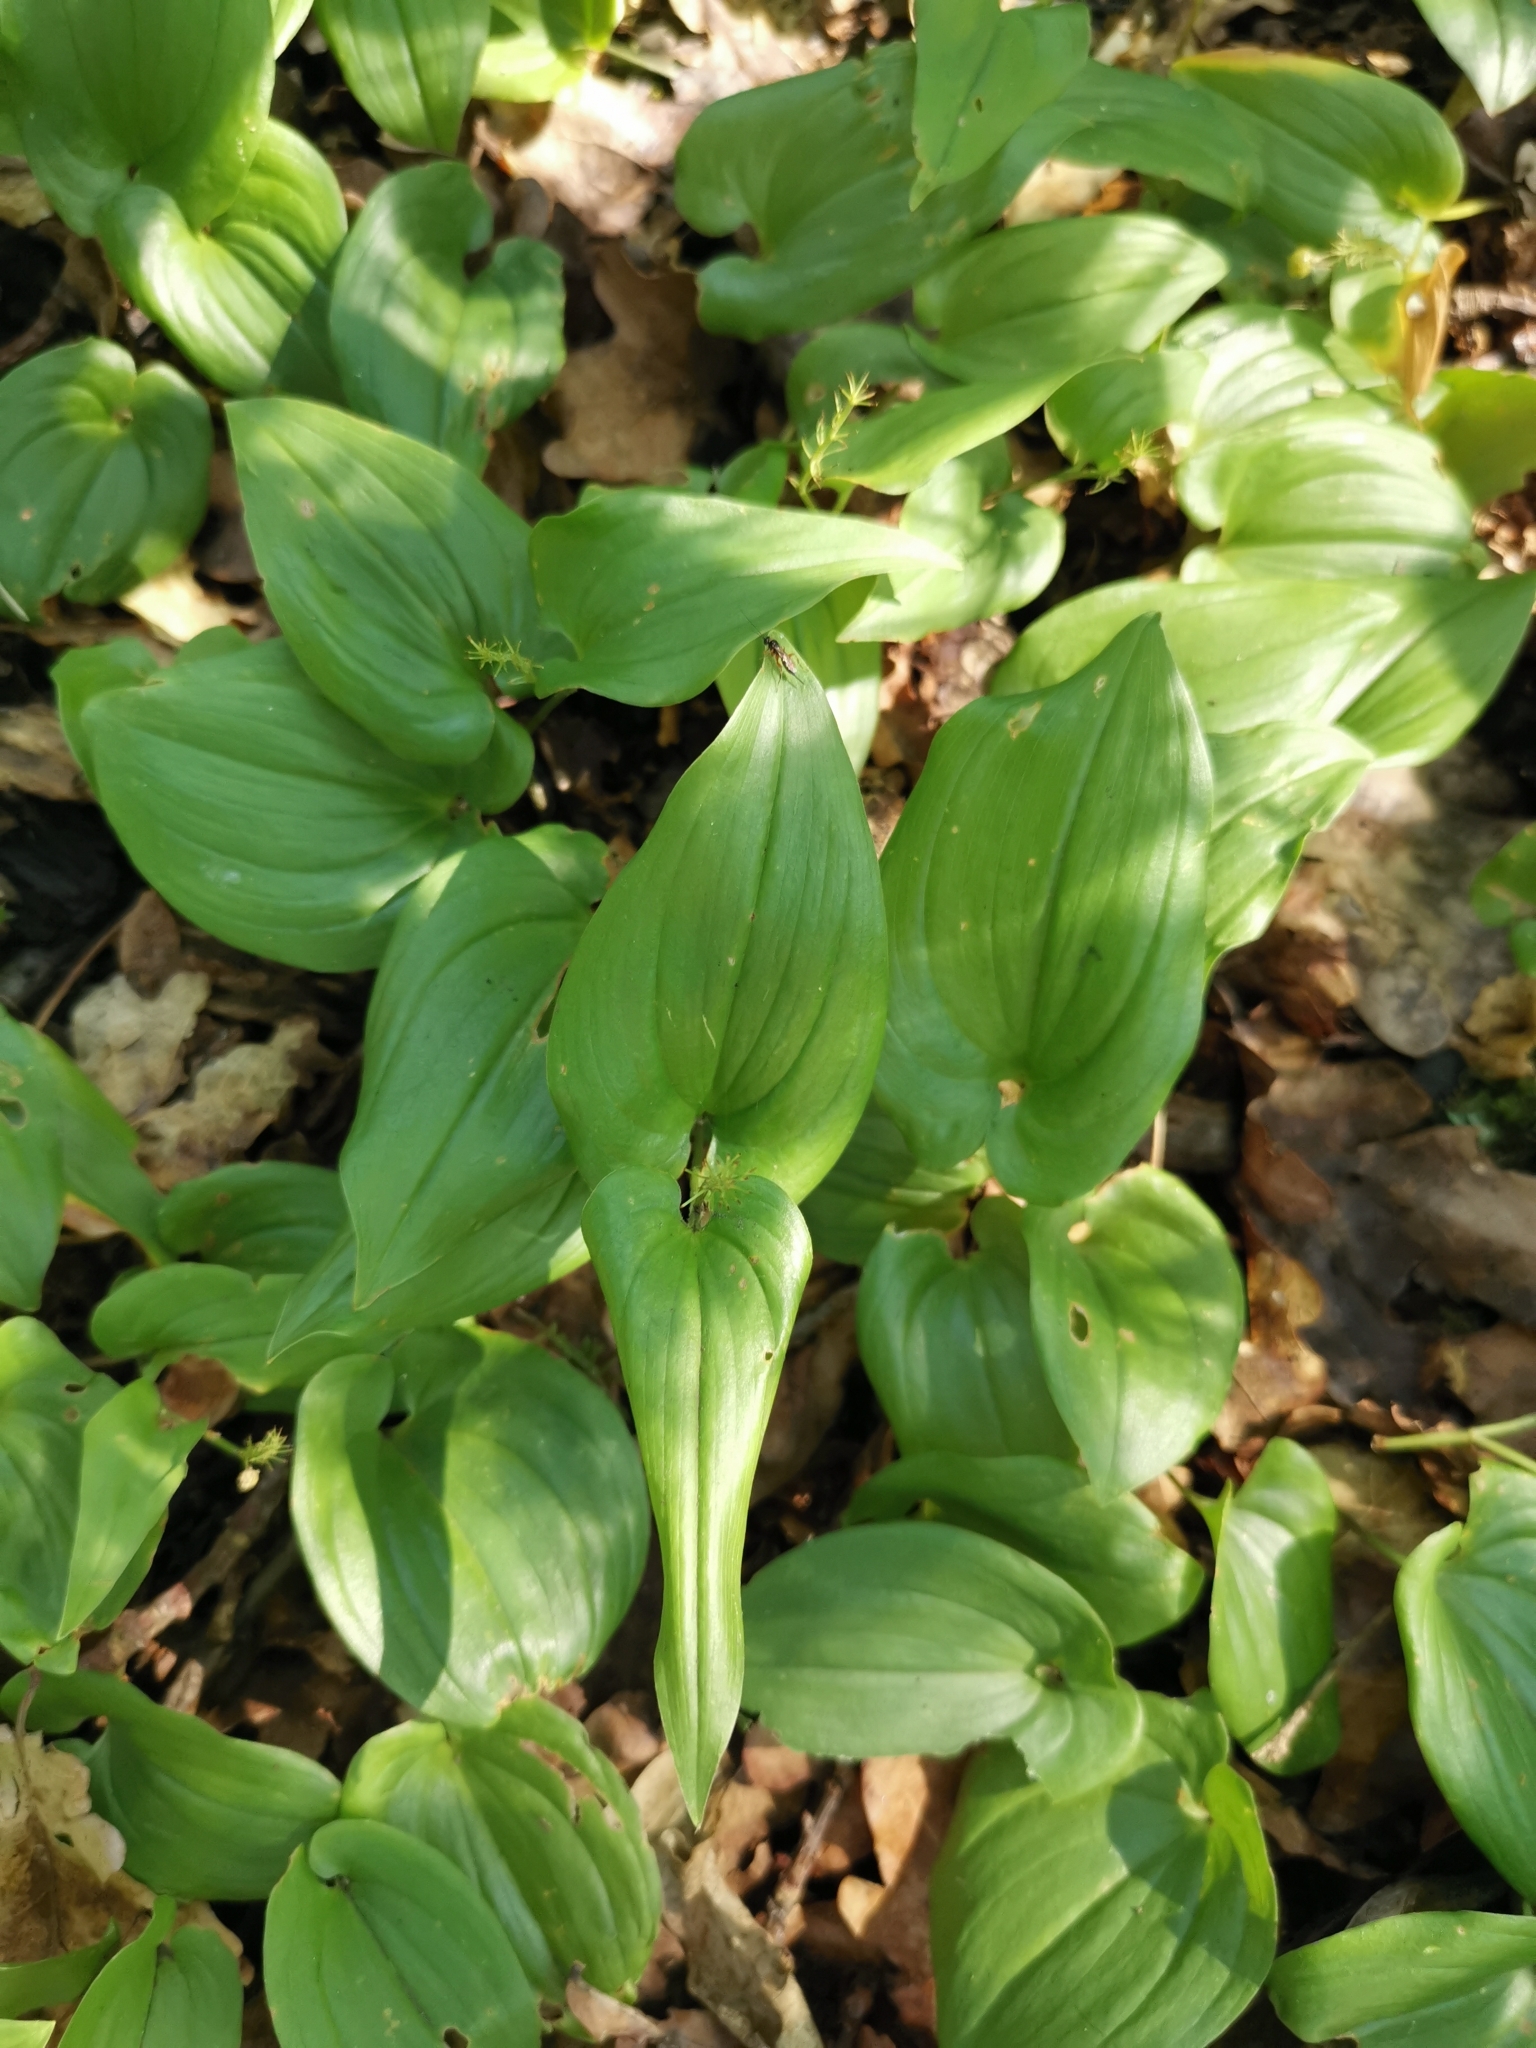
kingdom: Plantae
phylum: Tracheophyta
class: Liliopsida
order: Asparagales
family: Asparagaceae
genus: Maianthemum
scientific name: Maianthemum bifolium
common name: May lily
